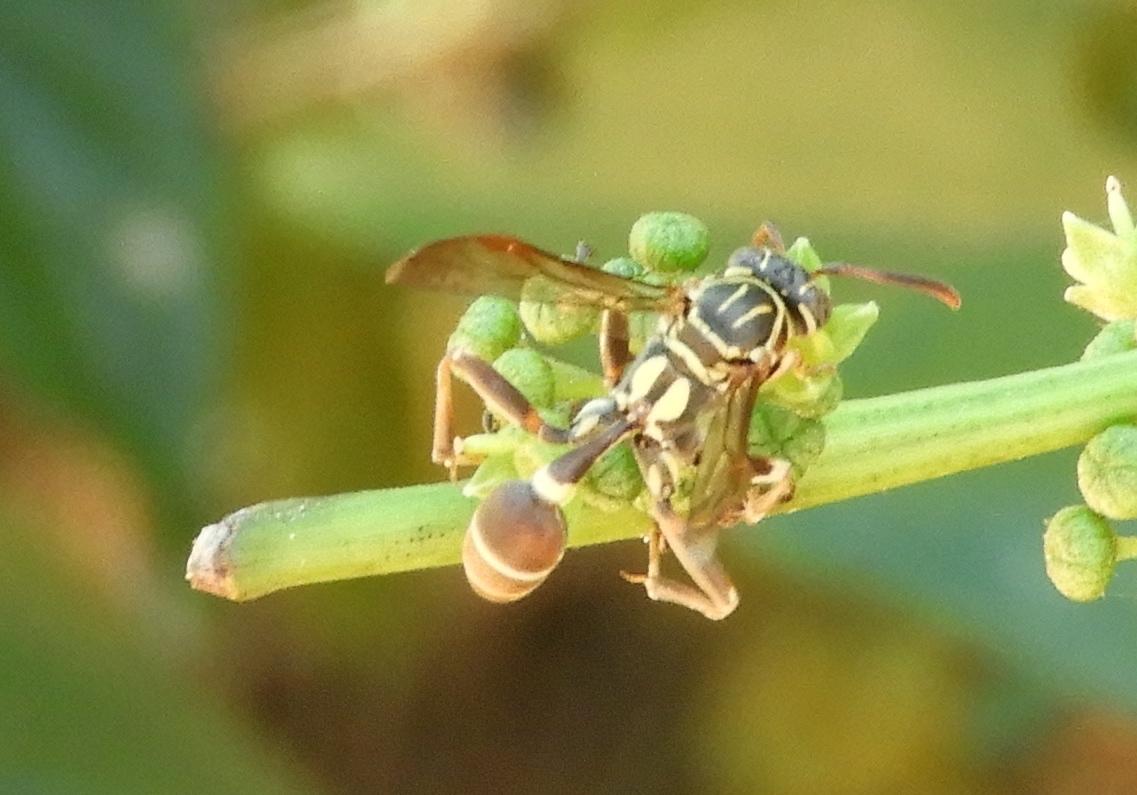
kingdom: Animalia
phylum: Arthropoda
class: Insecta
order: Hymenoptera
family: Vespidae
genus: Mischocyttarus
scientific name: Mischocyttarus mexicanus
